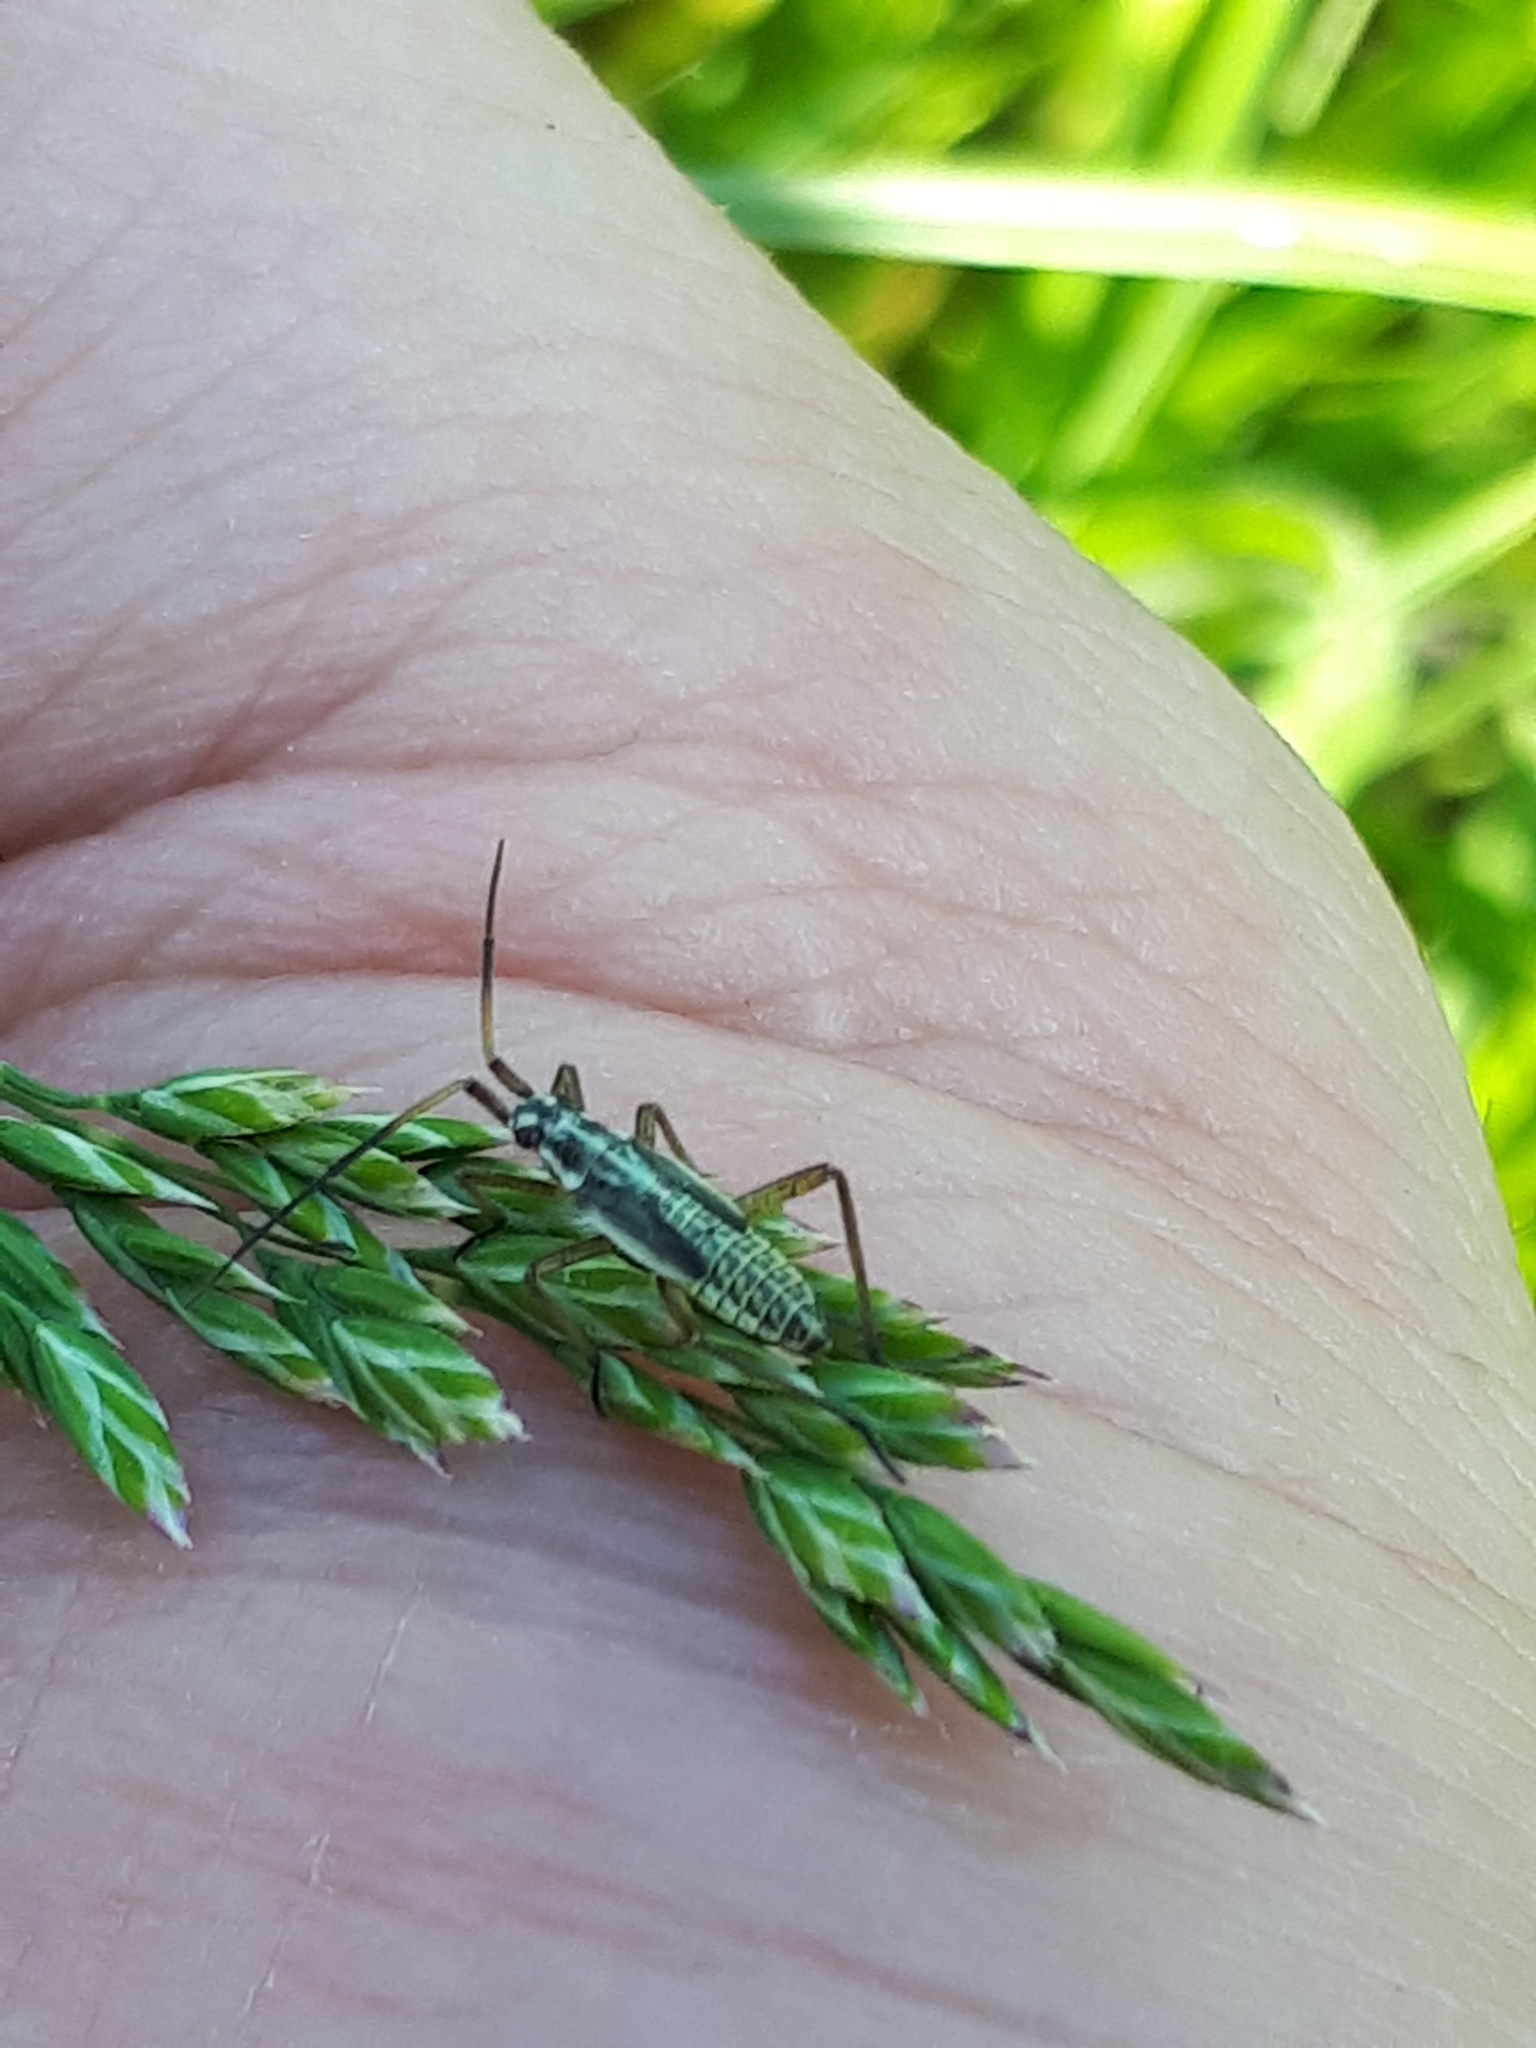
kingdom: Animalia
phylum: Arthropoda
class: Insecta
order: Hemiptera
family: Miridae
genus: Leptopterna
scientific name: Leptopterna dolabrata
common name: Meadow plant bug
